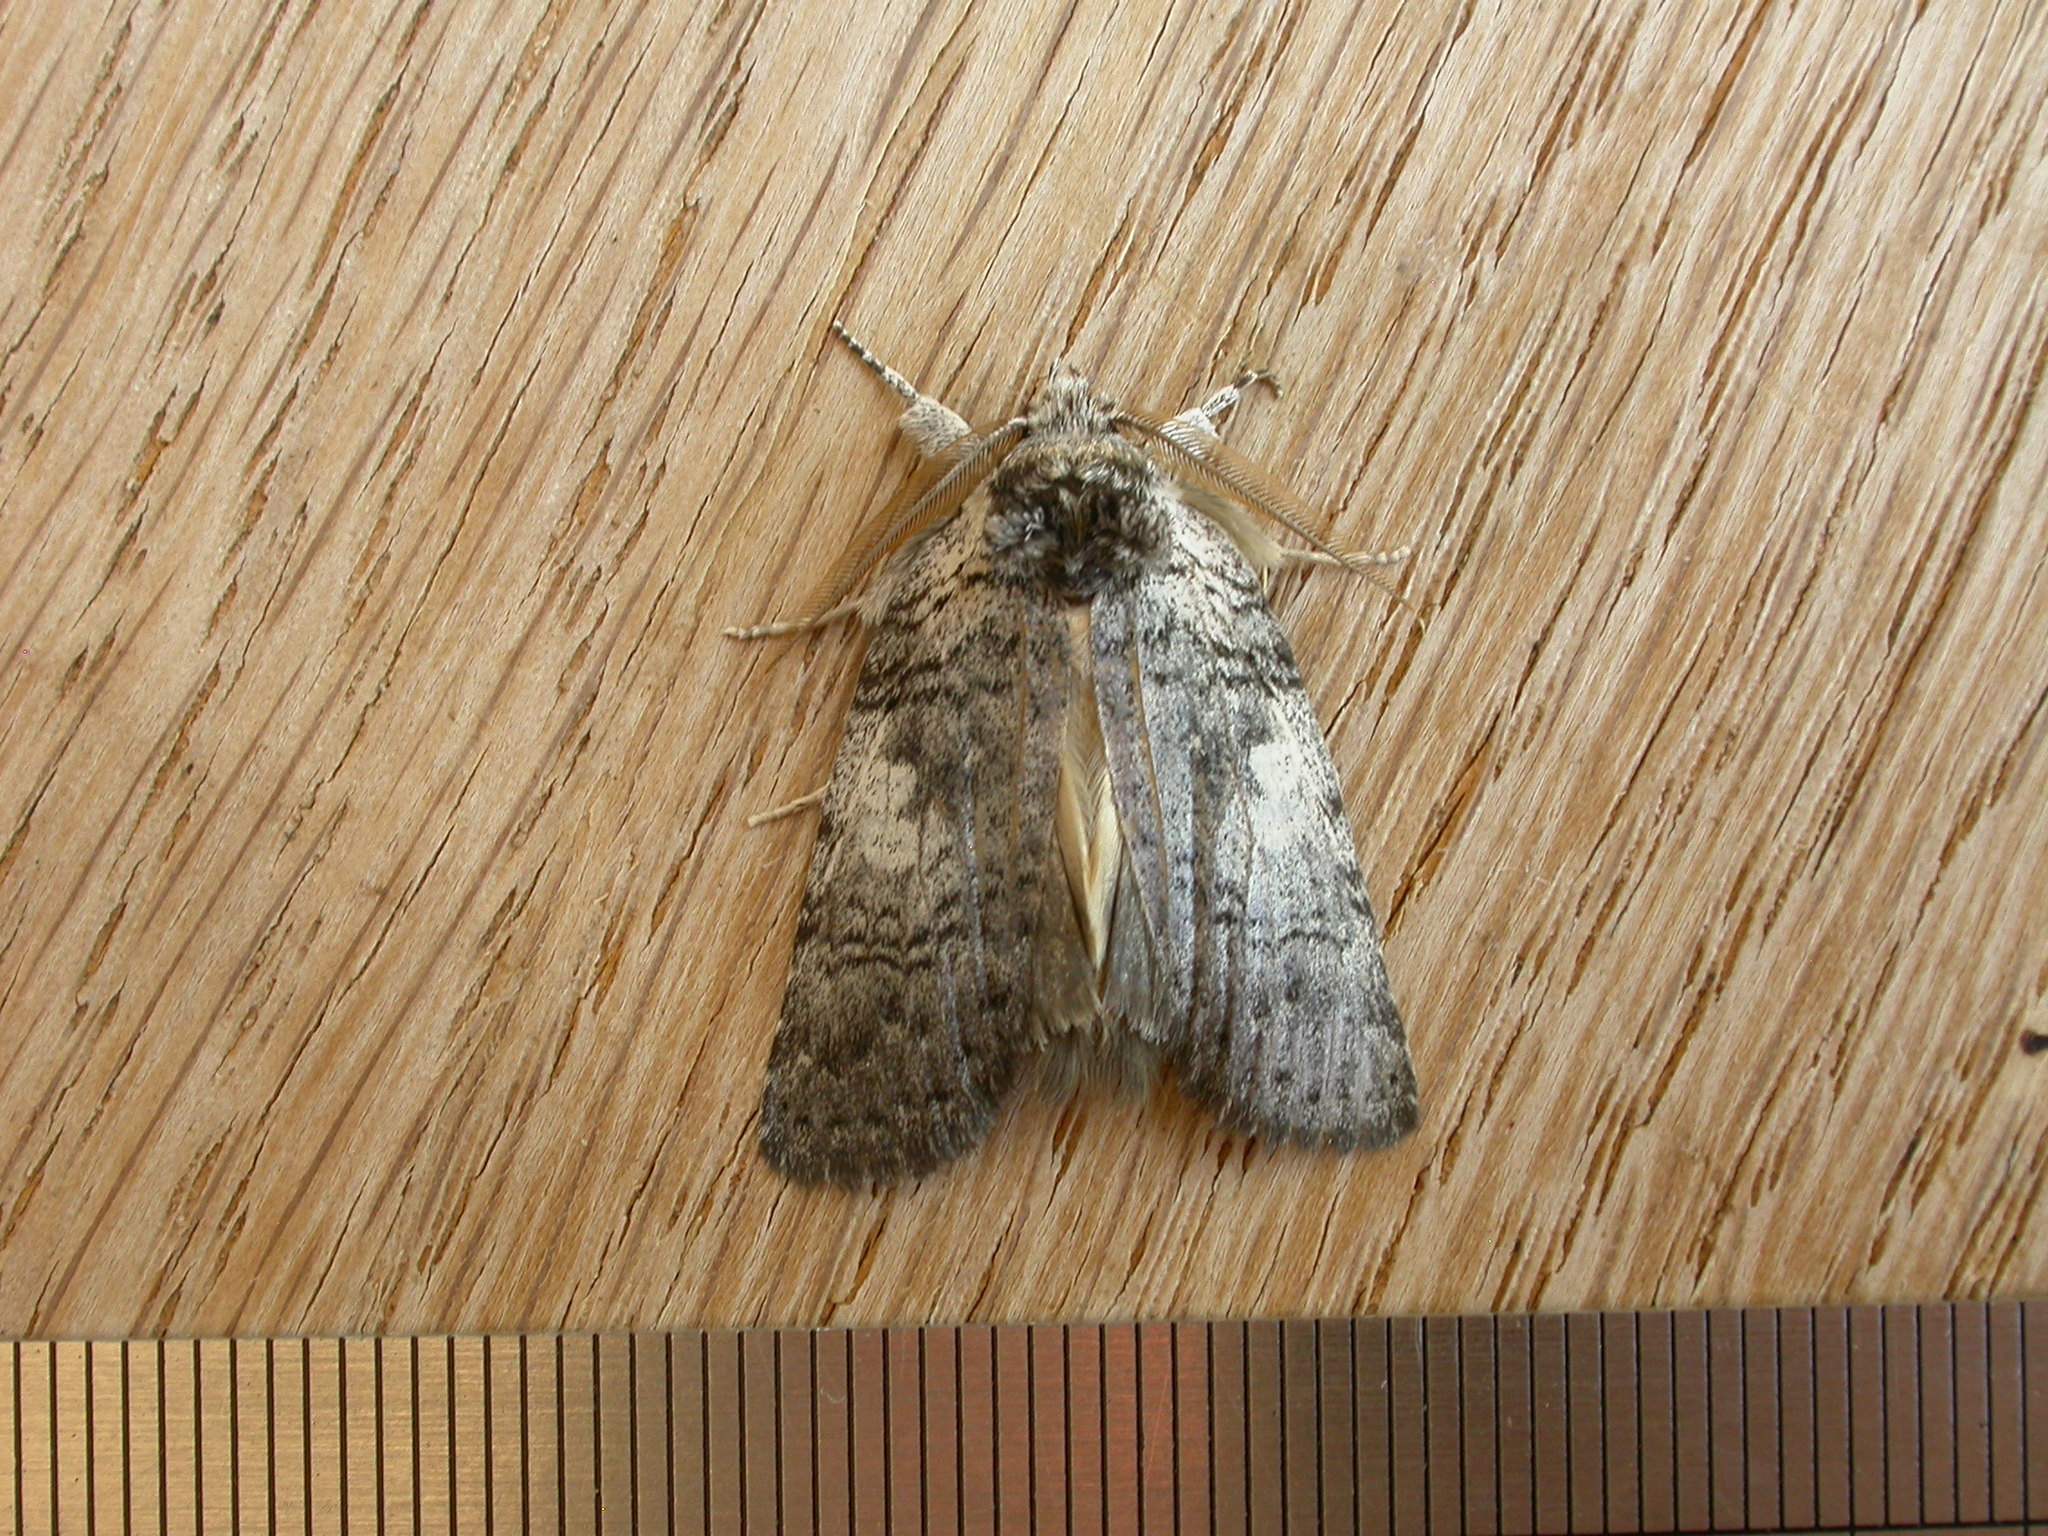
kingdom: Animalia
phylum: Arthropoda
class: Insecta
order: Lepidoptera
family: Notodontidae
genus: Gallaba
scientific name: Gallaba ochropepla
